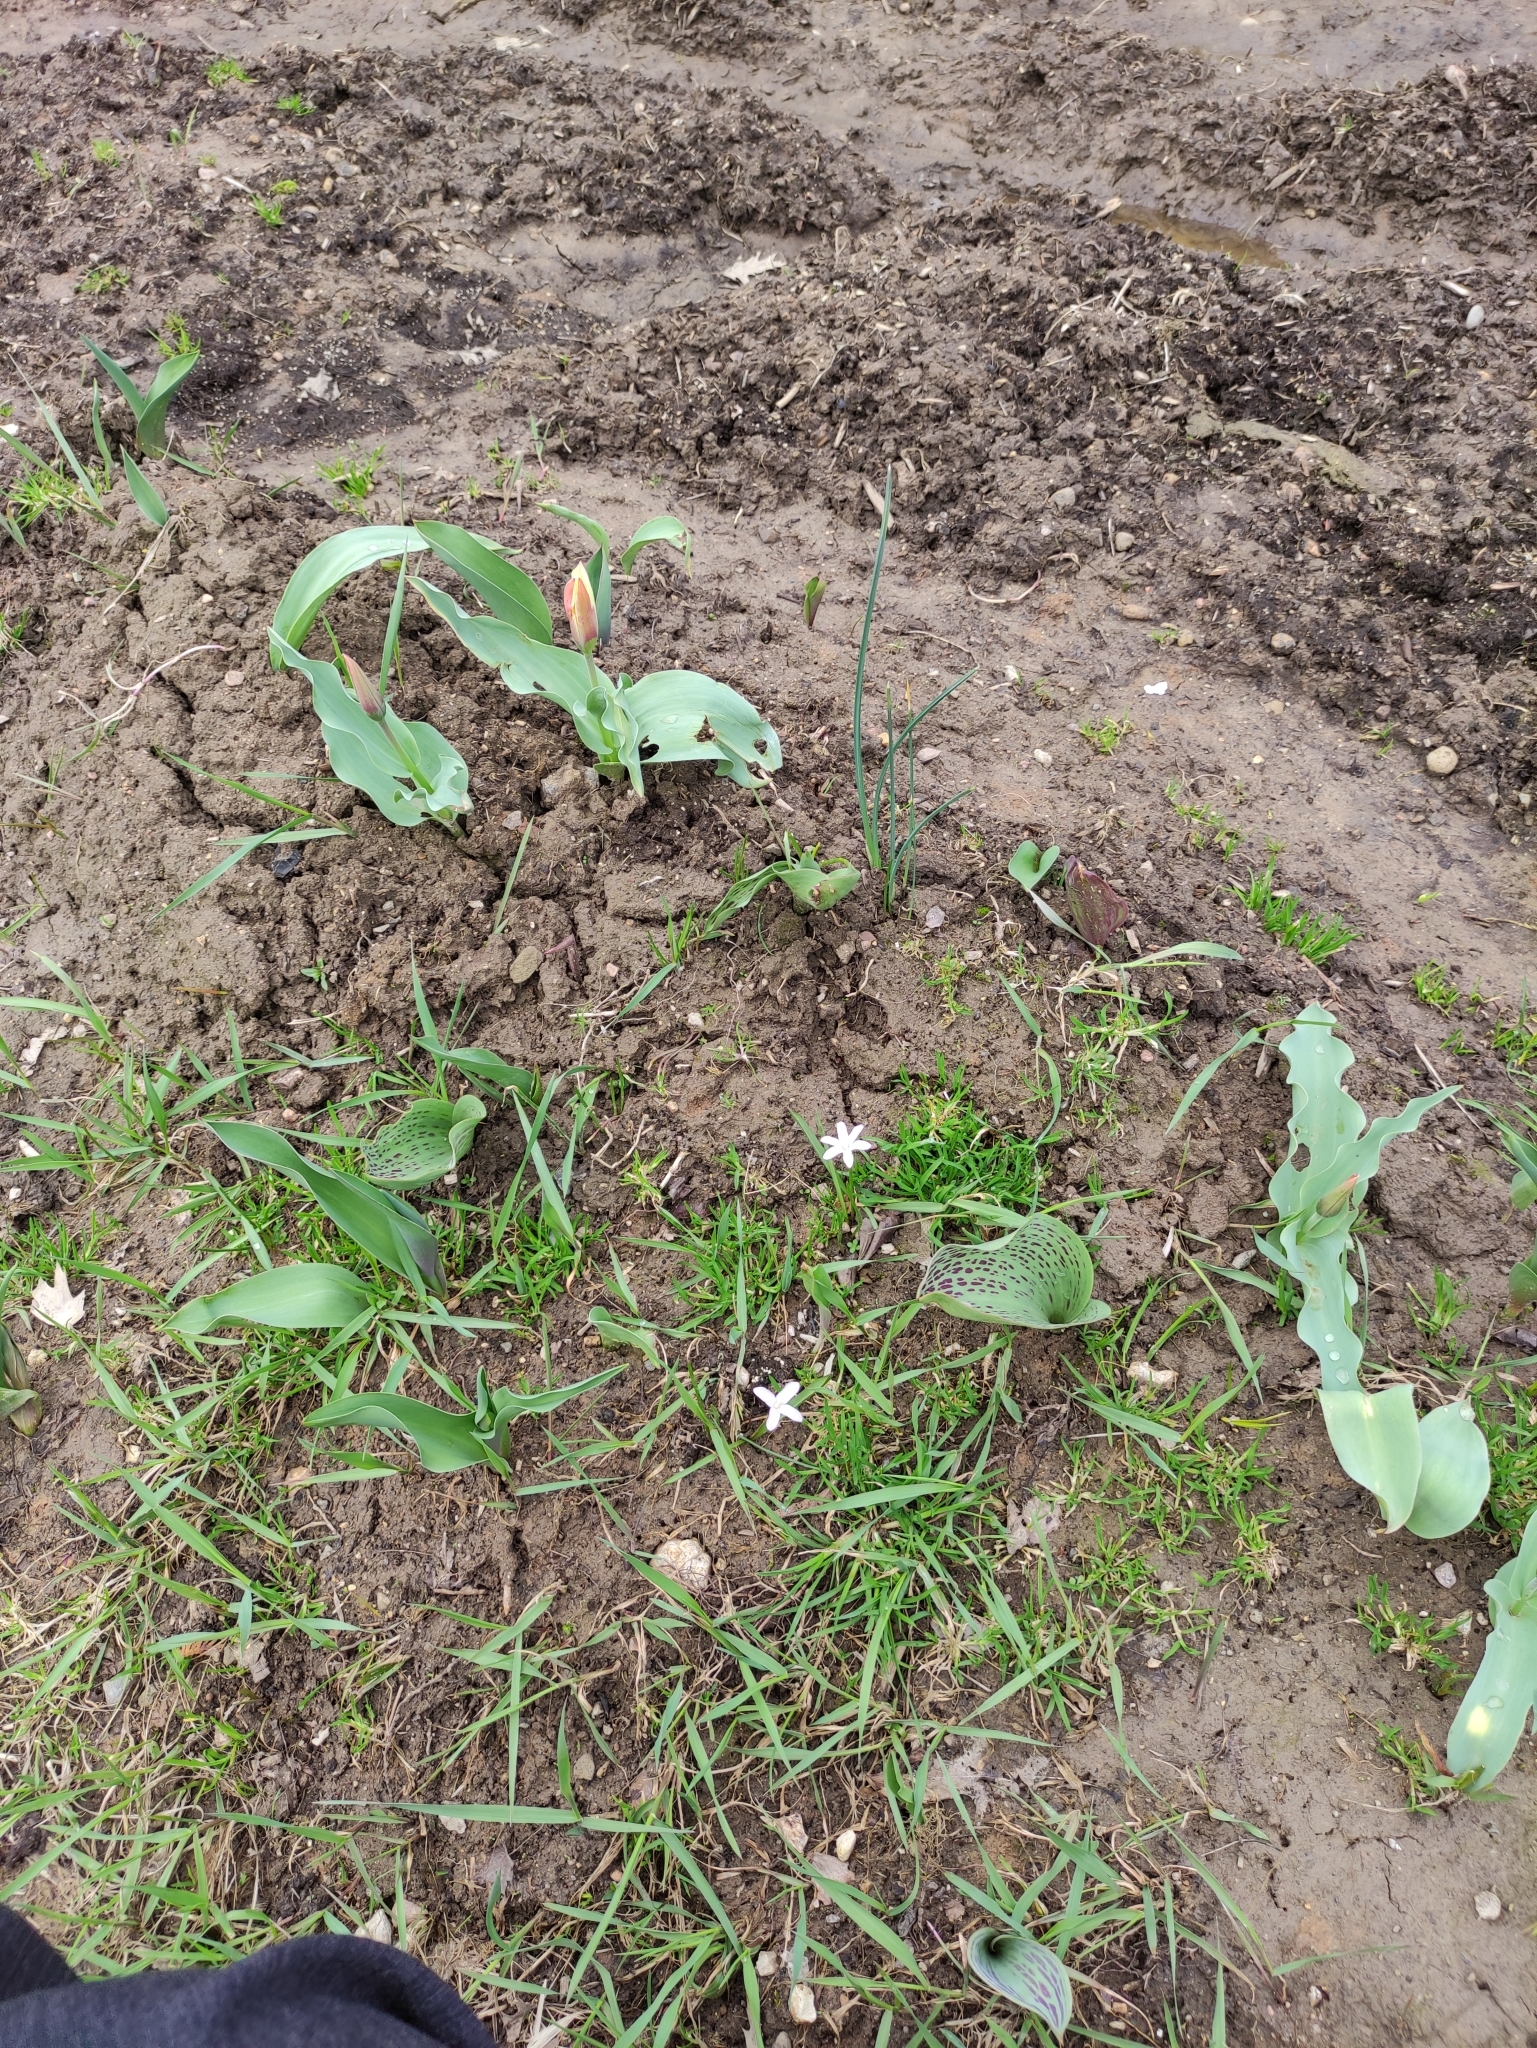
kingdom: Plantae
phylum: Tracheophyta
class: Liliopsida
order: Asparagales
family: Asparagaceae
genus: Scilla
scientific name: Scilla luciliae
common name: Boissier's glory-of-the-snow
